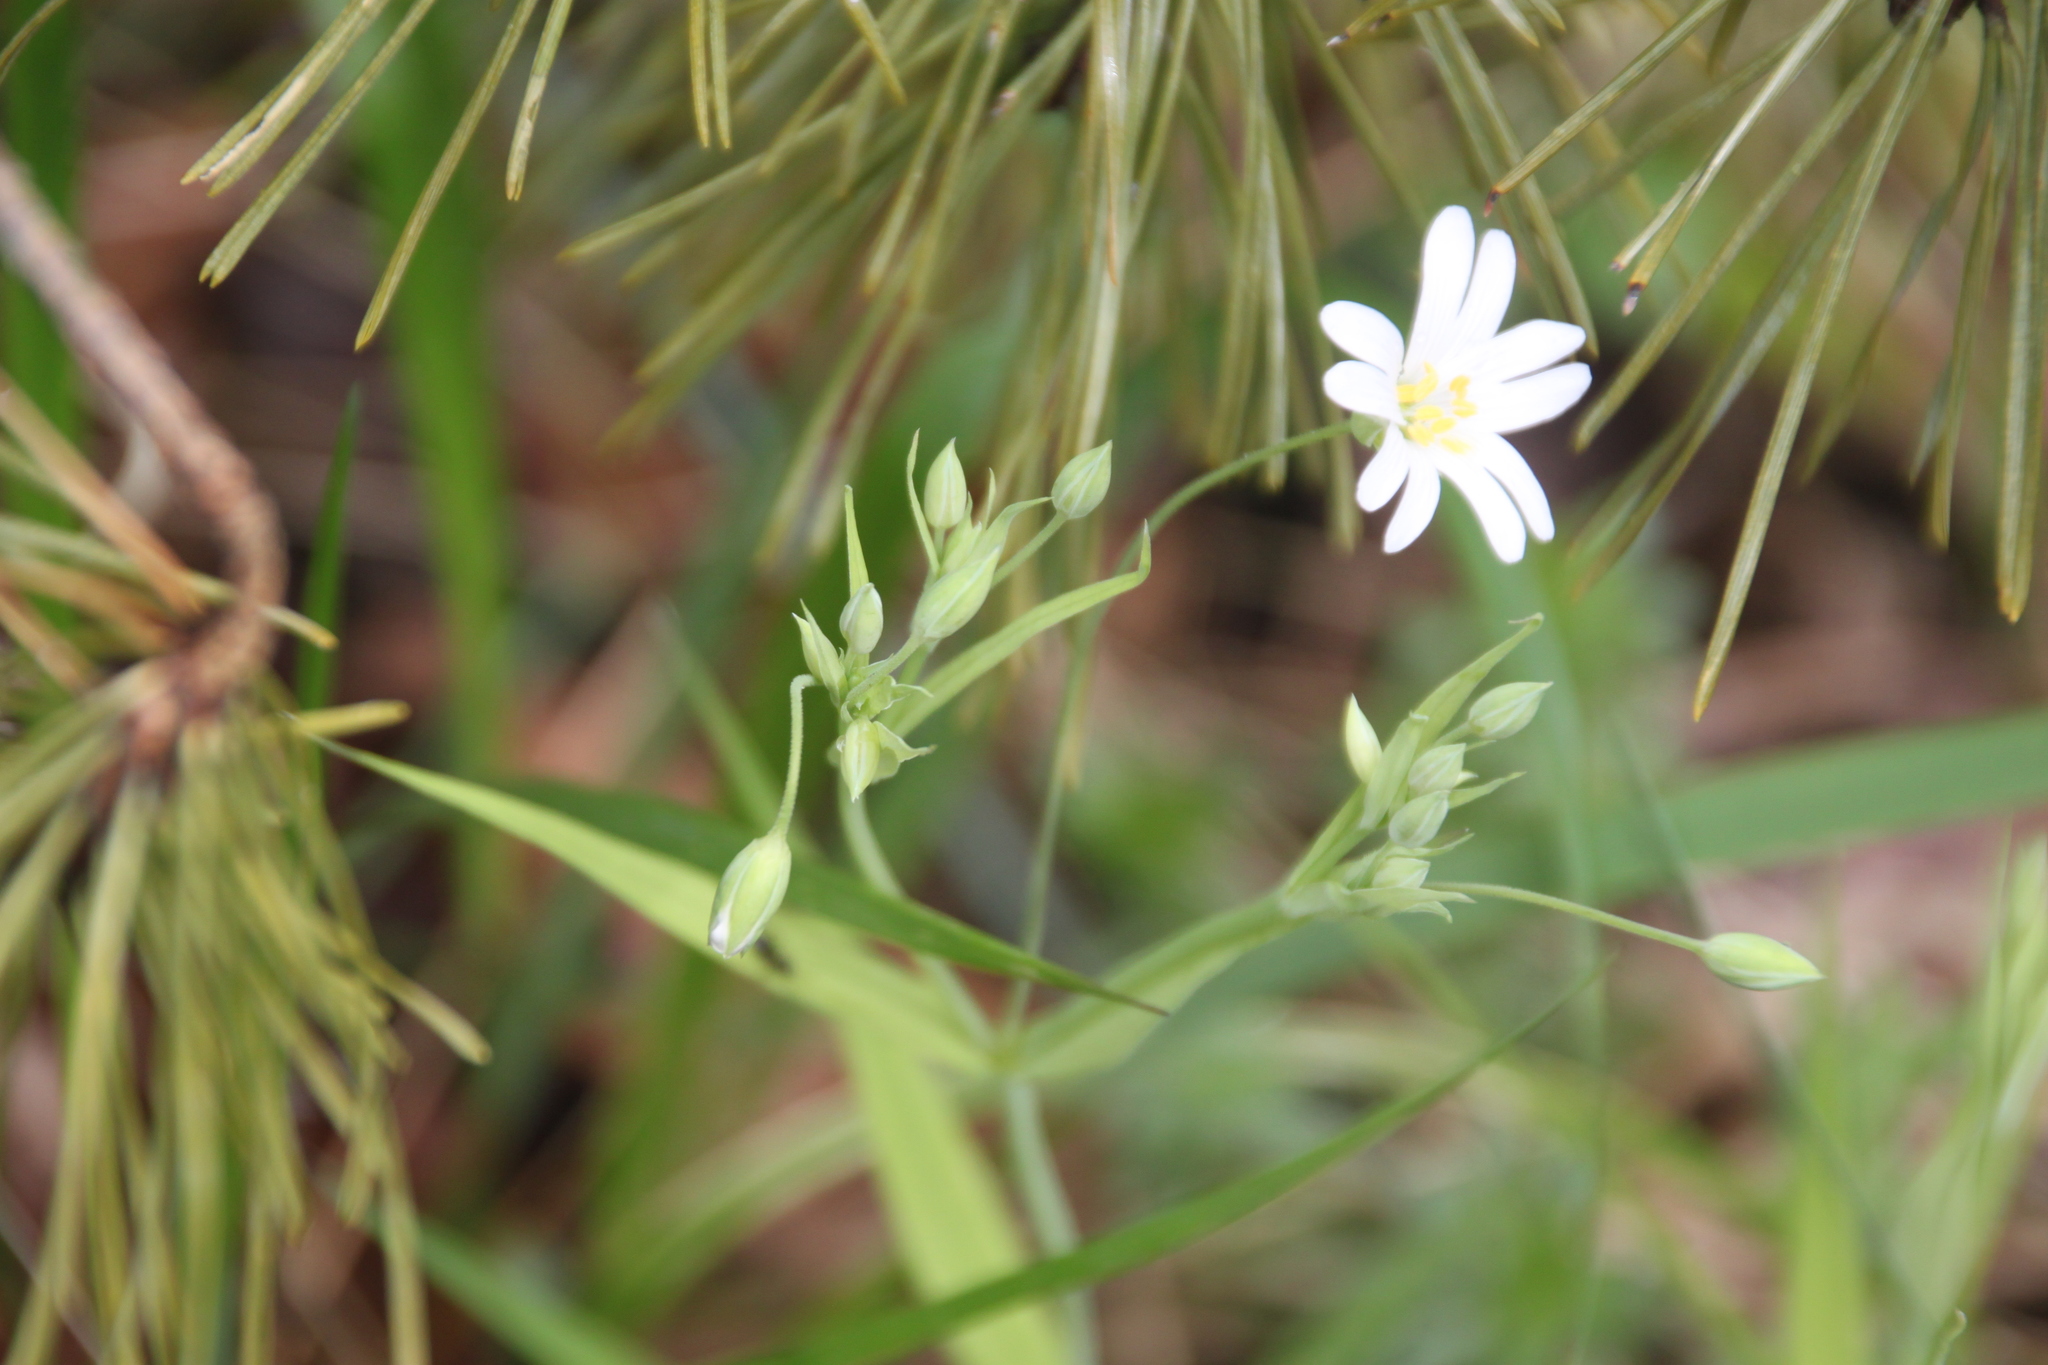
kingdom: Plantae
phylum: Tracheophyta
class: Magnoliopsida
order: Caryophyllales
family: Caryophyllaceae
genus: Rabelera
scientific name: Rabelera holostea
